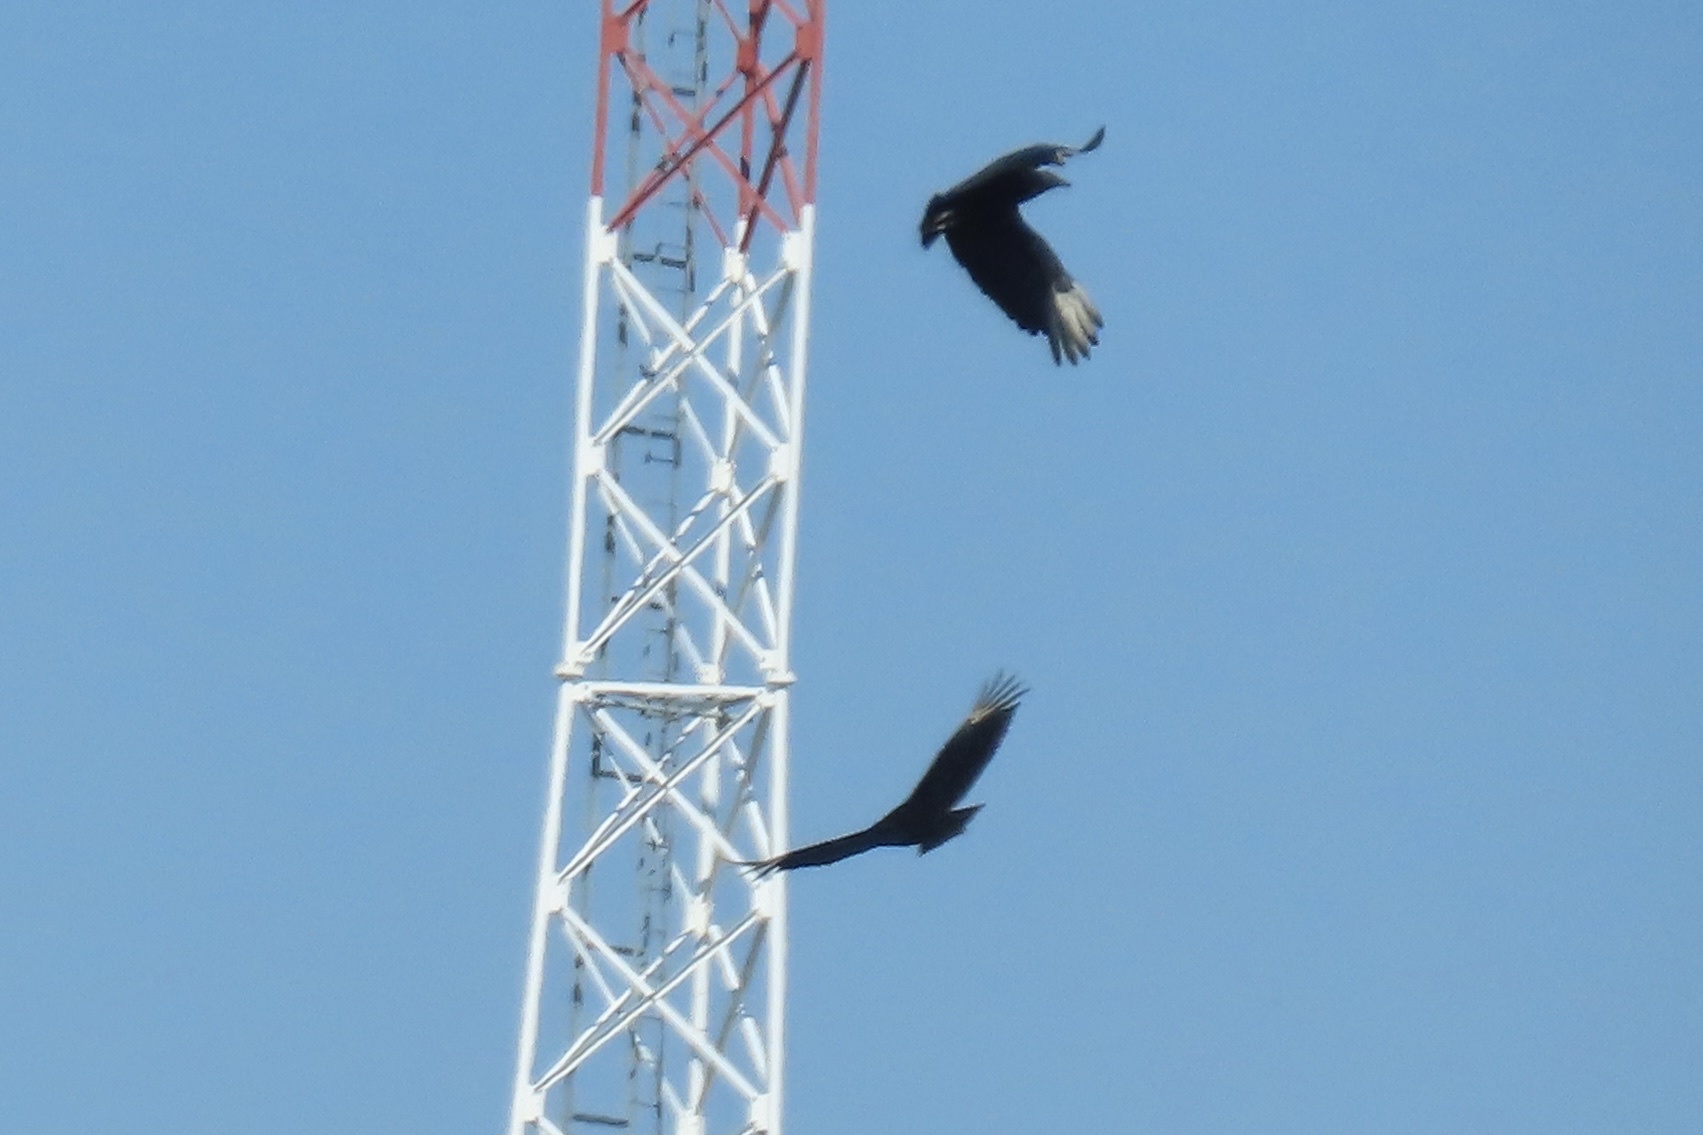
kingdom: Animalia
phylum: Chordata
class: Aves
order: Accipitriformes
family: Cathartidae
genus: Coragyps
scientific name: Coragyps atratus
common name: Black vulture
